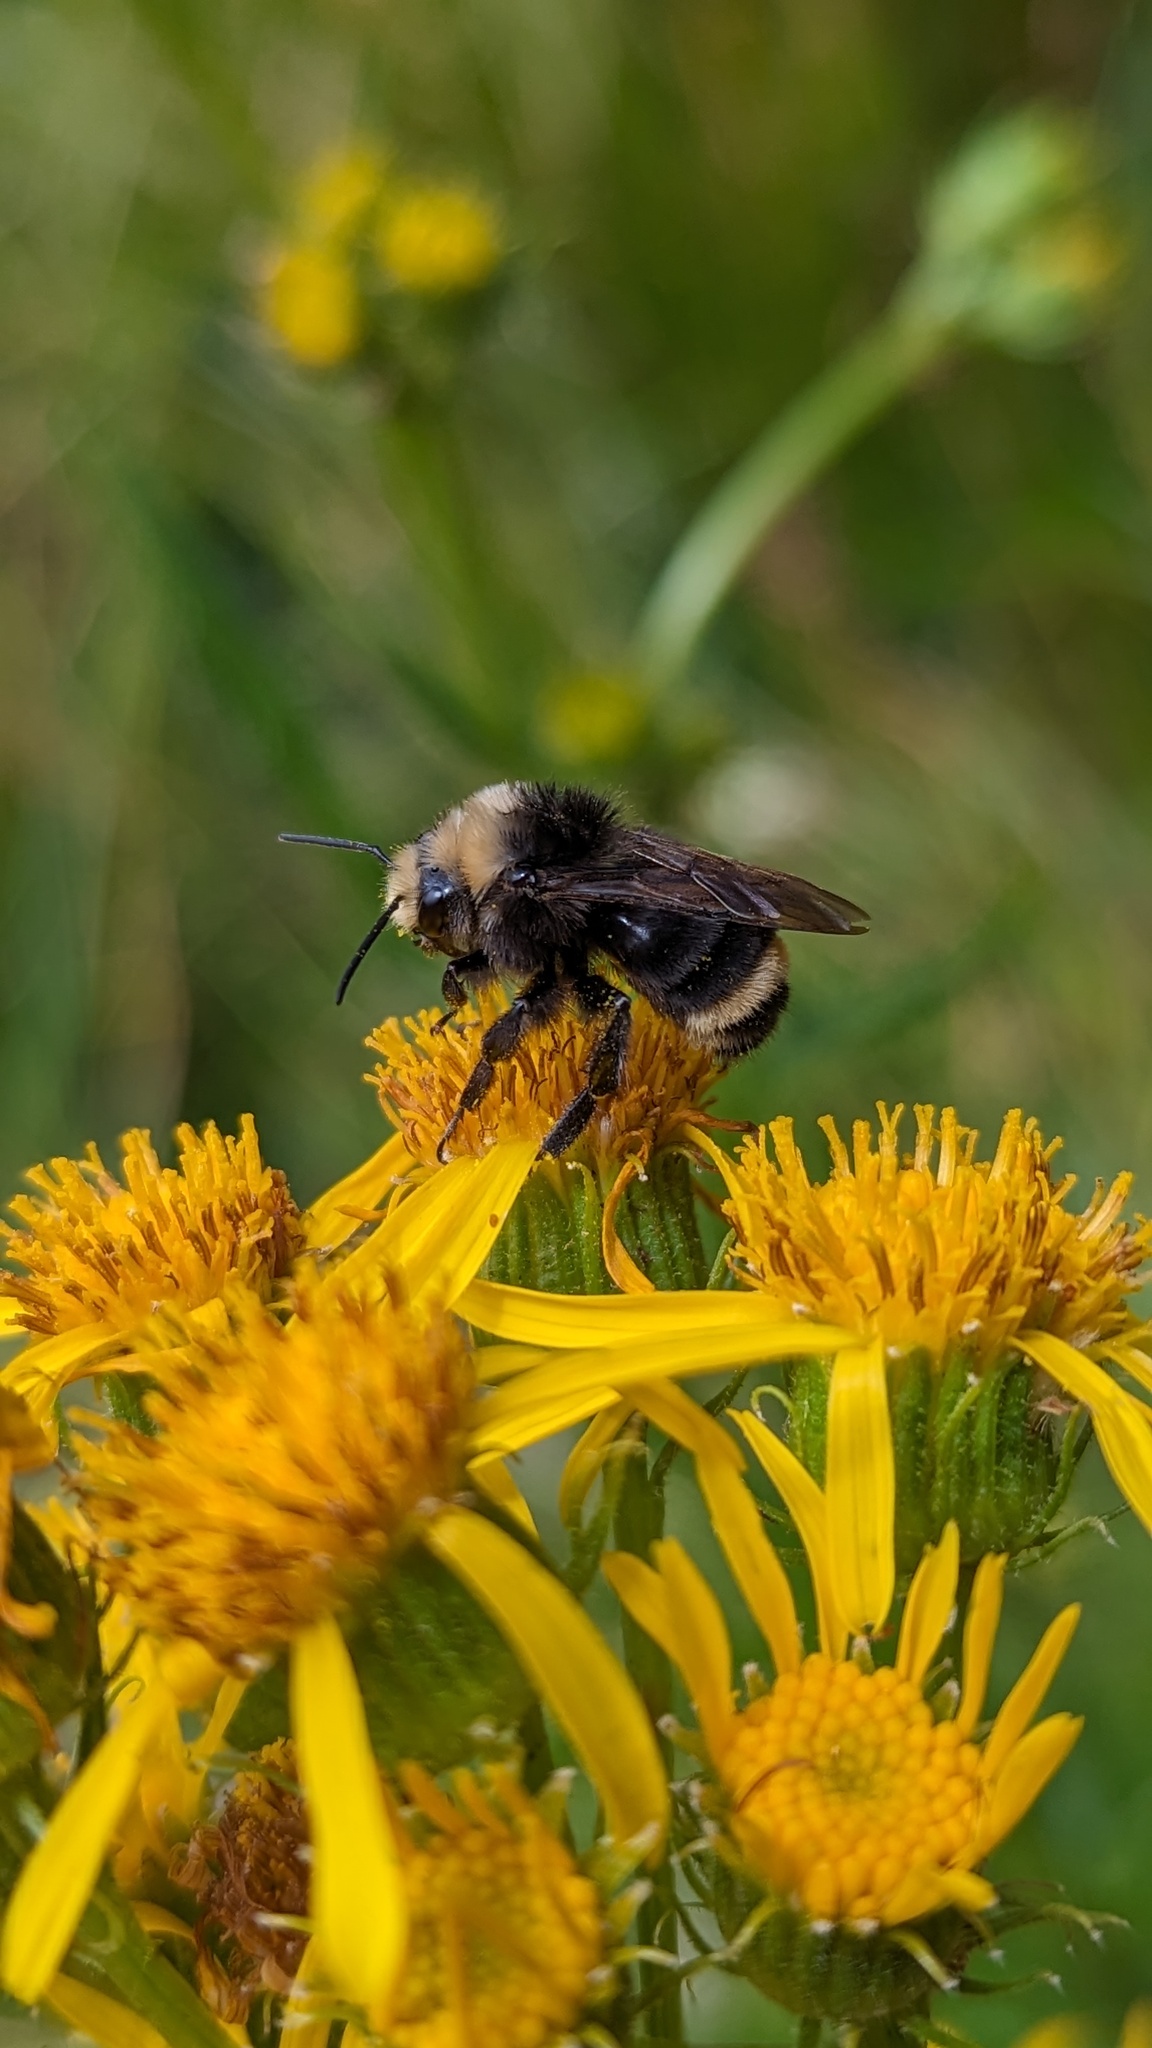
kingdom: Animalia
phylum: Arthropoda
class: Insecta
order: Hymenoptera
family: Apidae
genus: Bombus
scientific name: Bombus vosnesenskii
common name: Vosnesensky bumble bee
